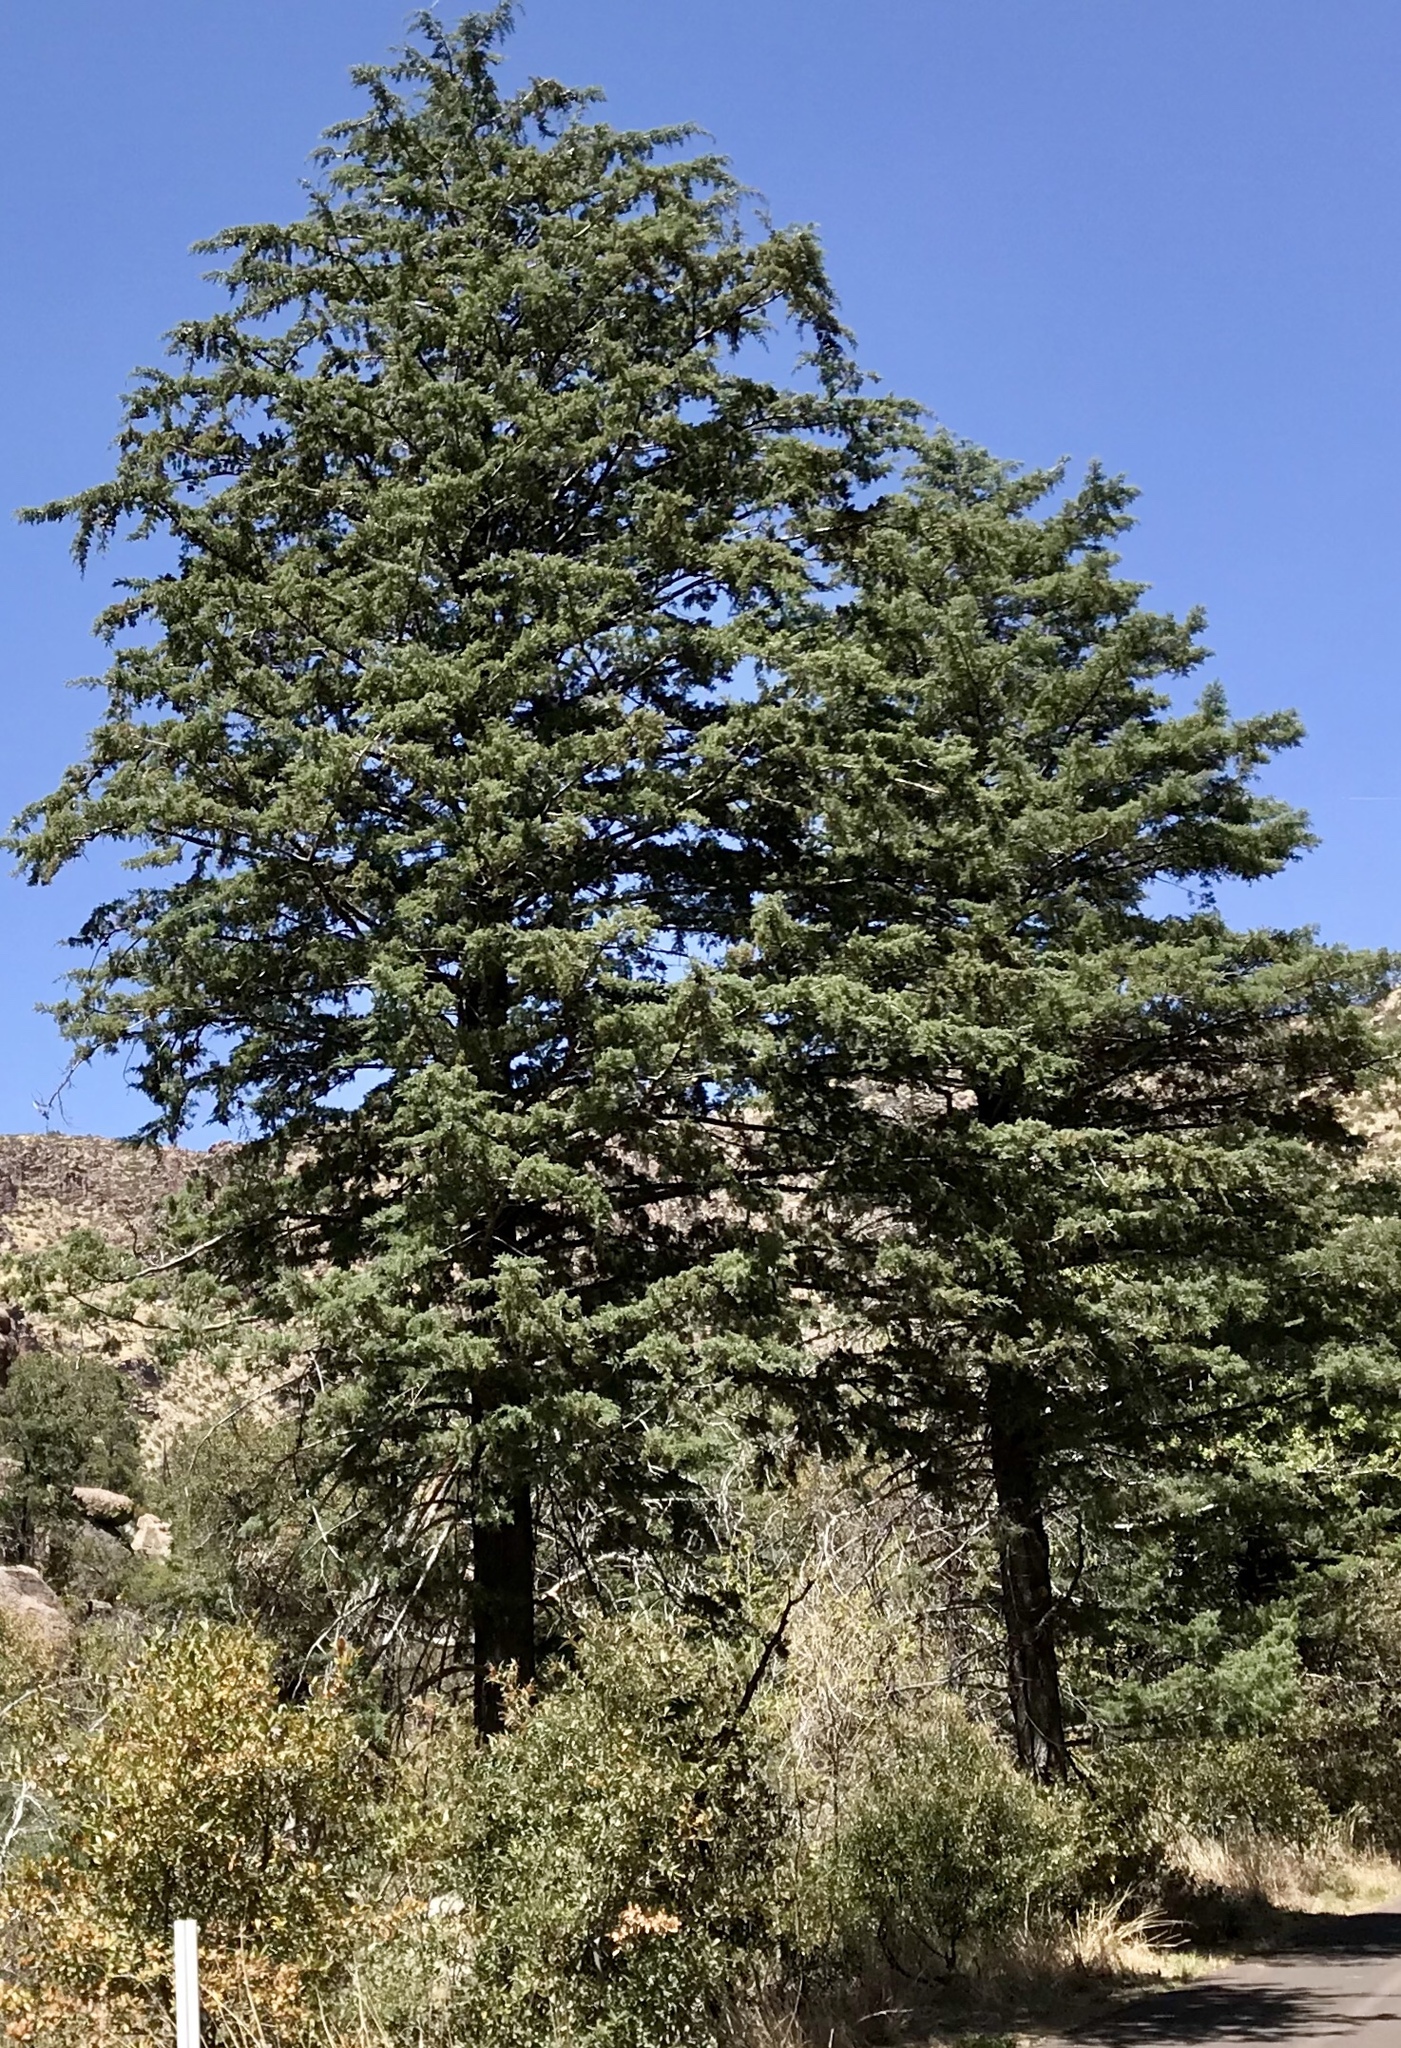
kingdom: Plantae
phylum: Tracheophyta
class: Pinopsida
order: Pinales
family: Cupressaceae
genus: Cupressus
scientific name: Cupressus arizonica
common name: Arizona cypress
